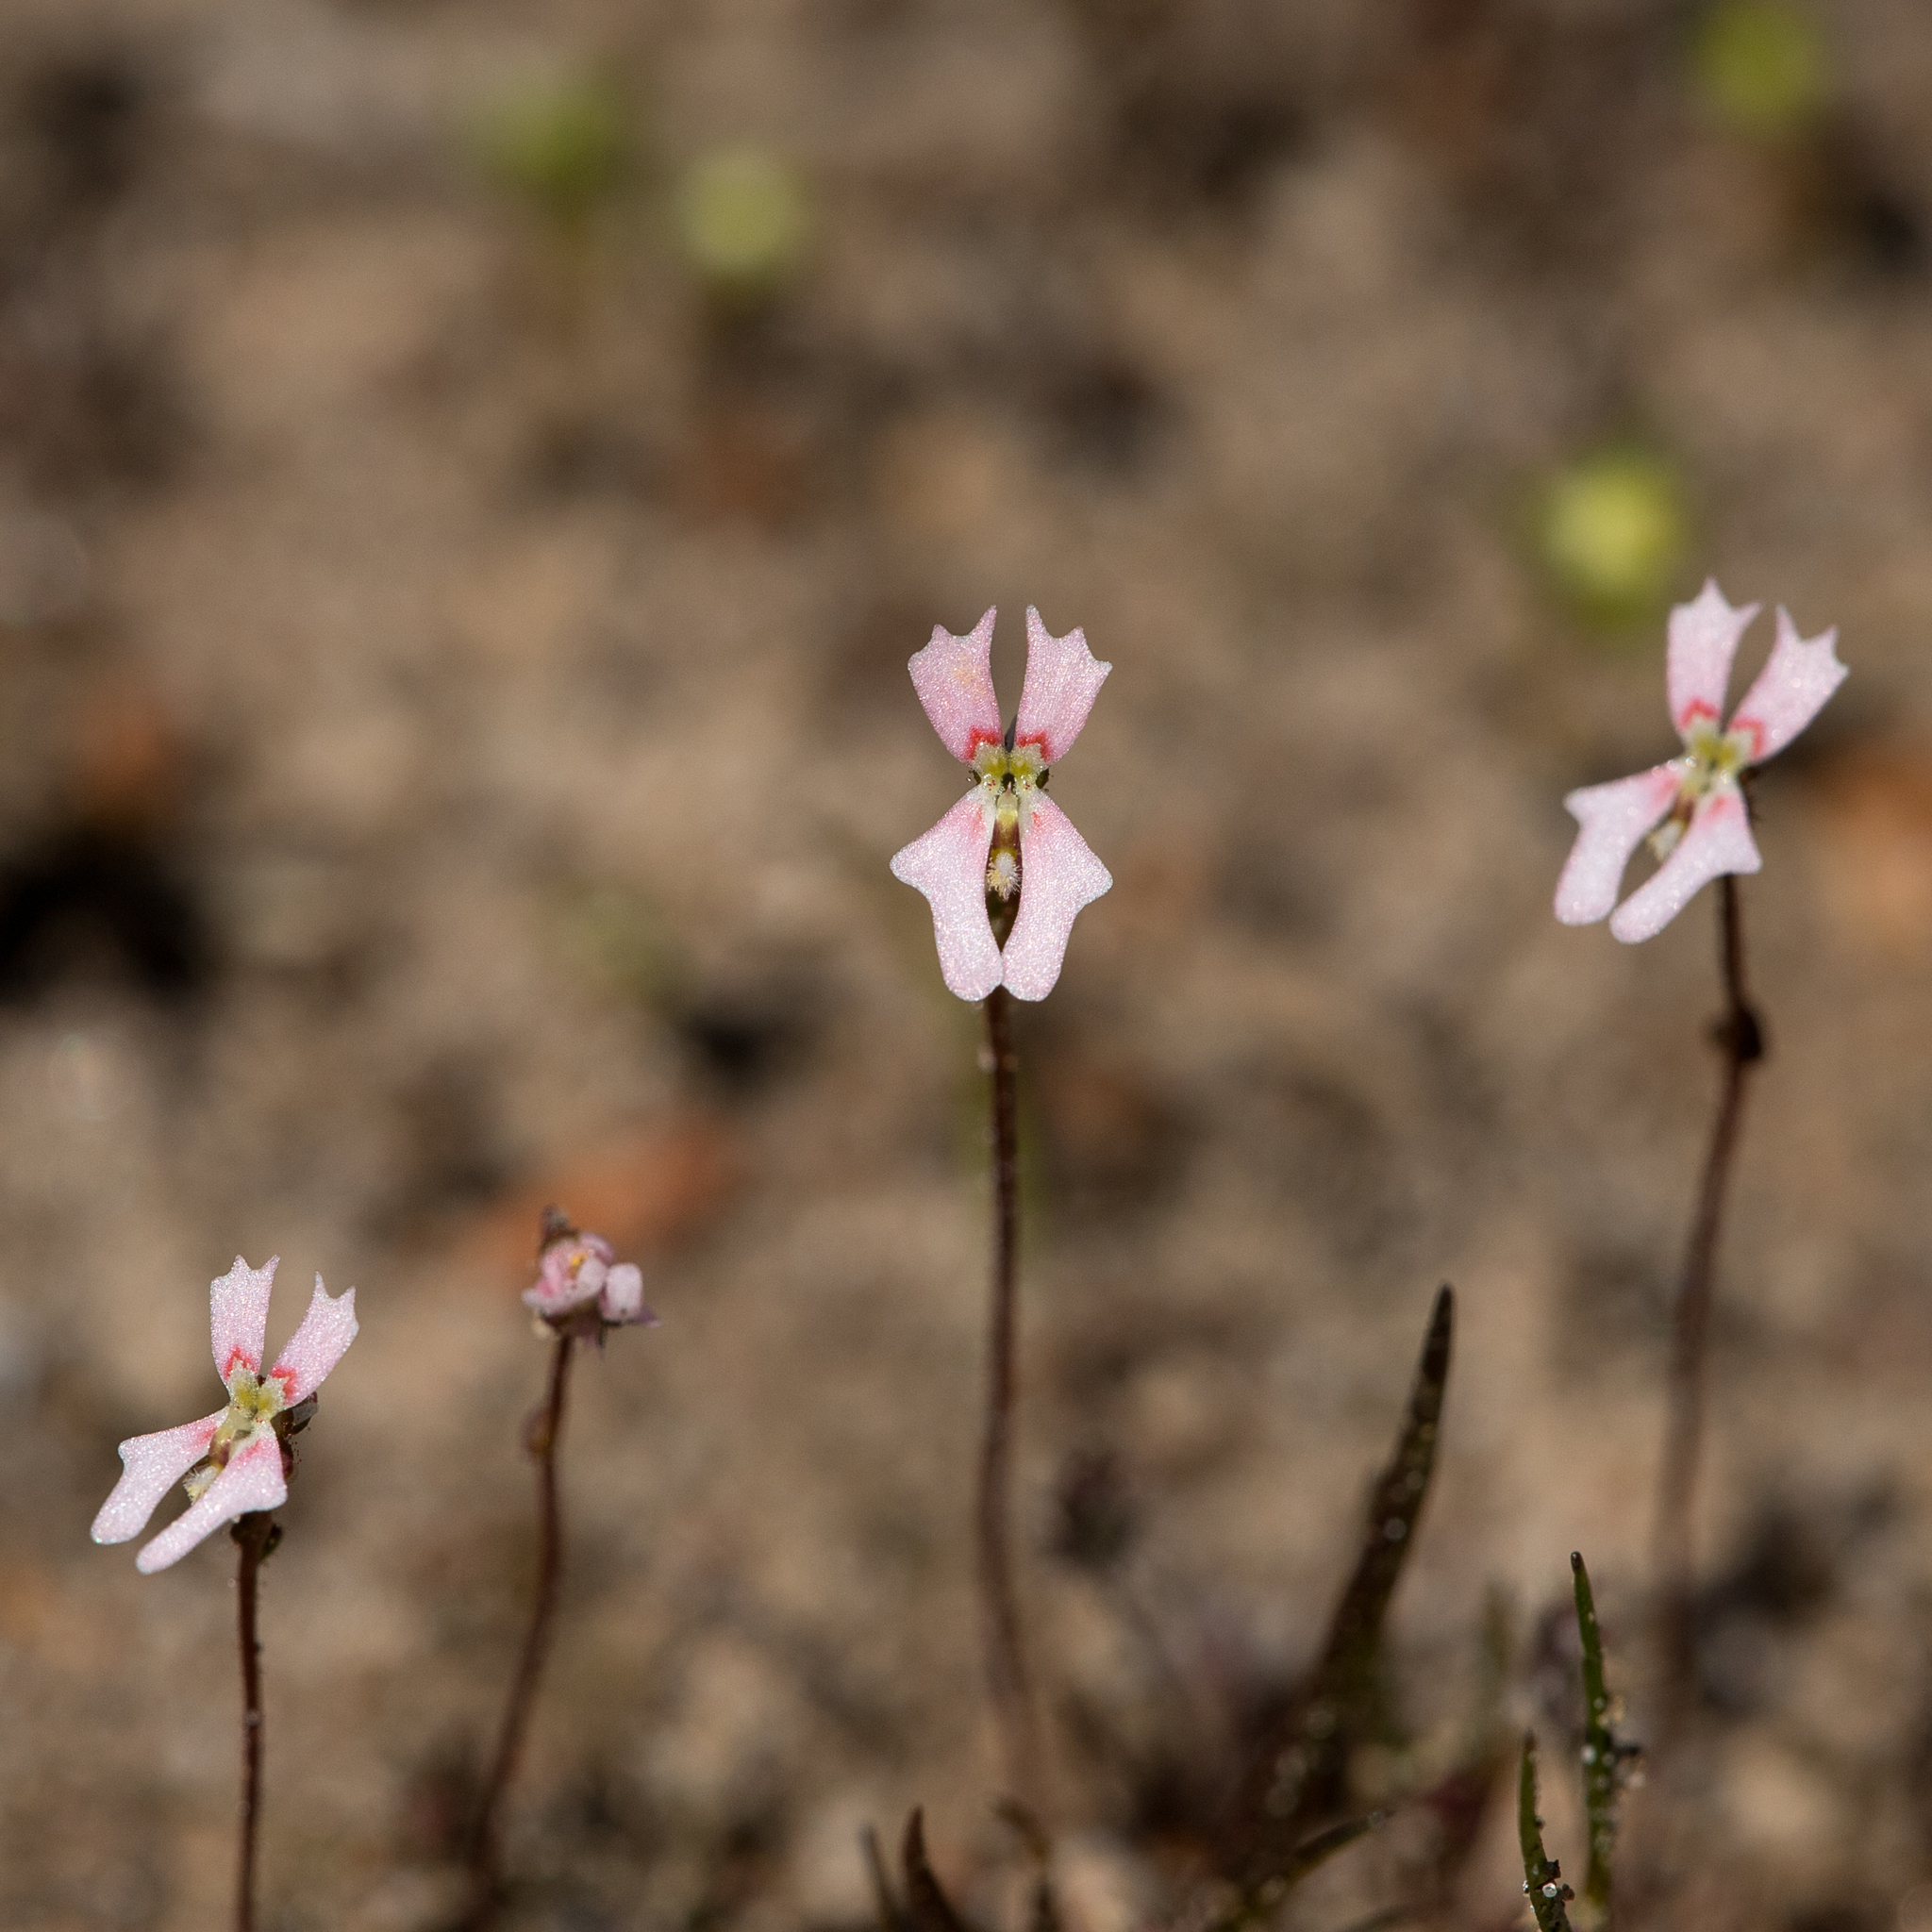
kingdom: Plantae
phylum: Tracheophyta
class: Magnoliopsida
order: Asterales
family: Stylidiaceae
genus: Stylidium
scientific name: Stylidium calcaratum
